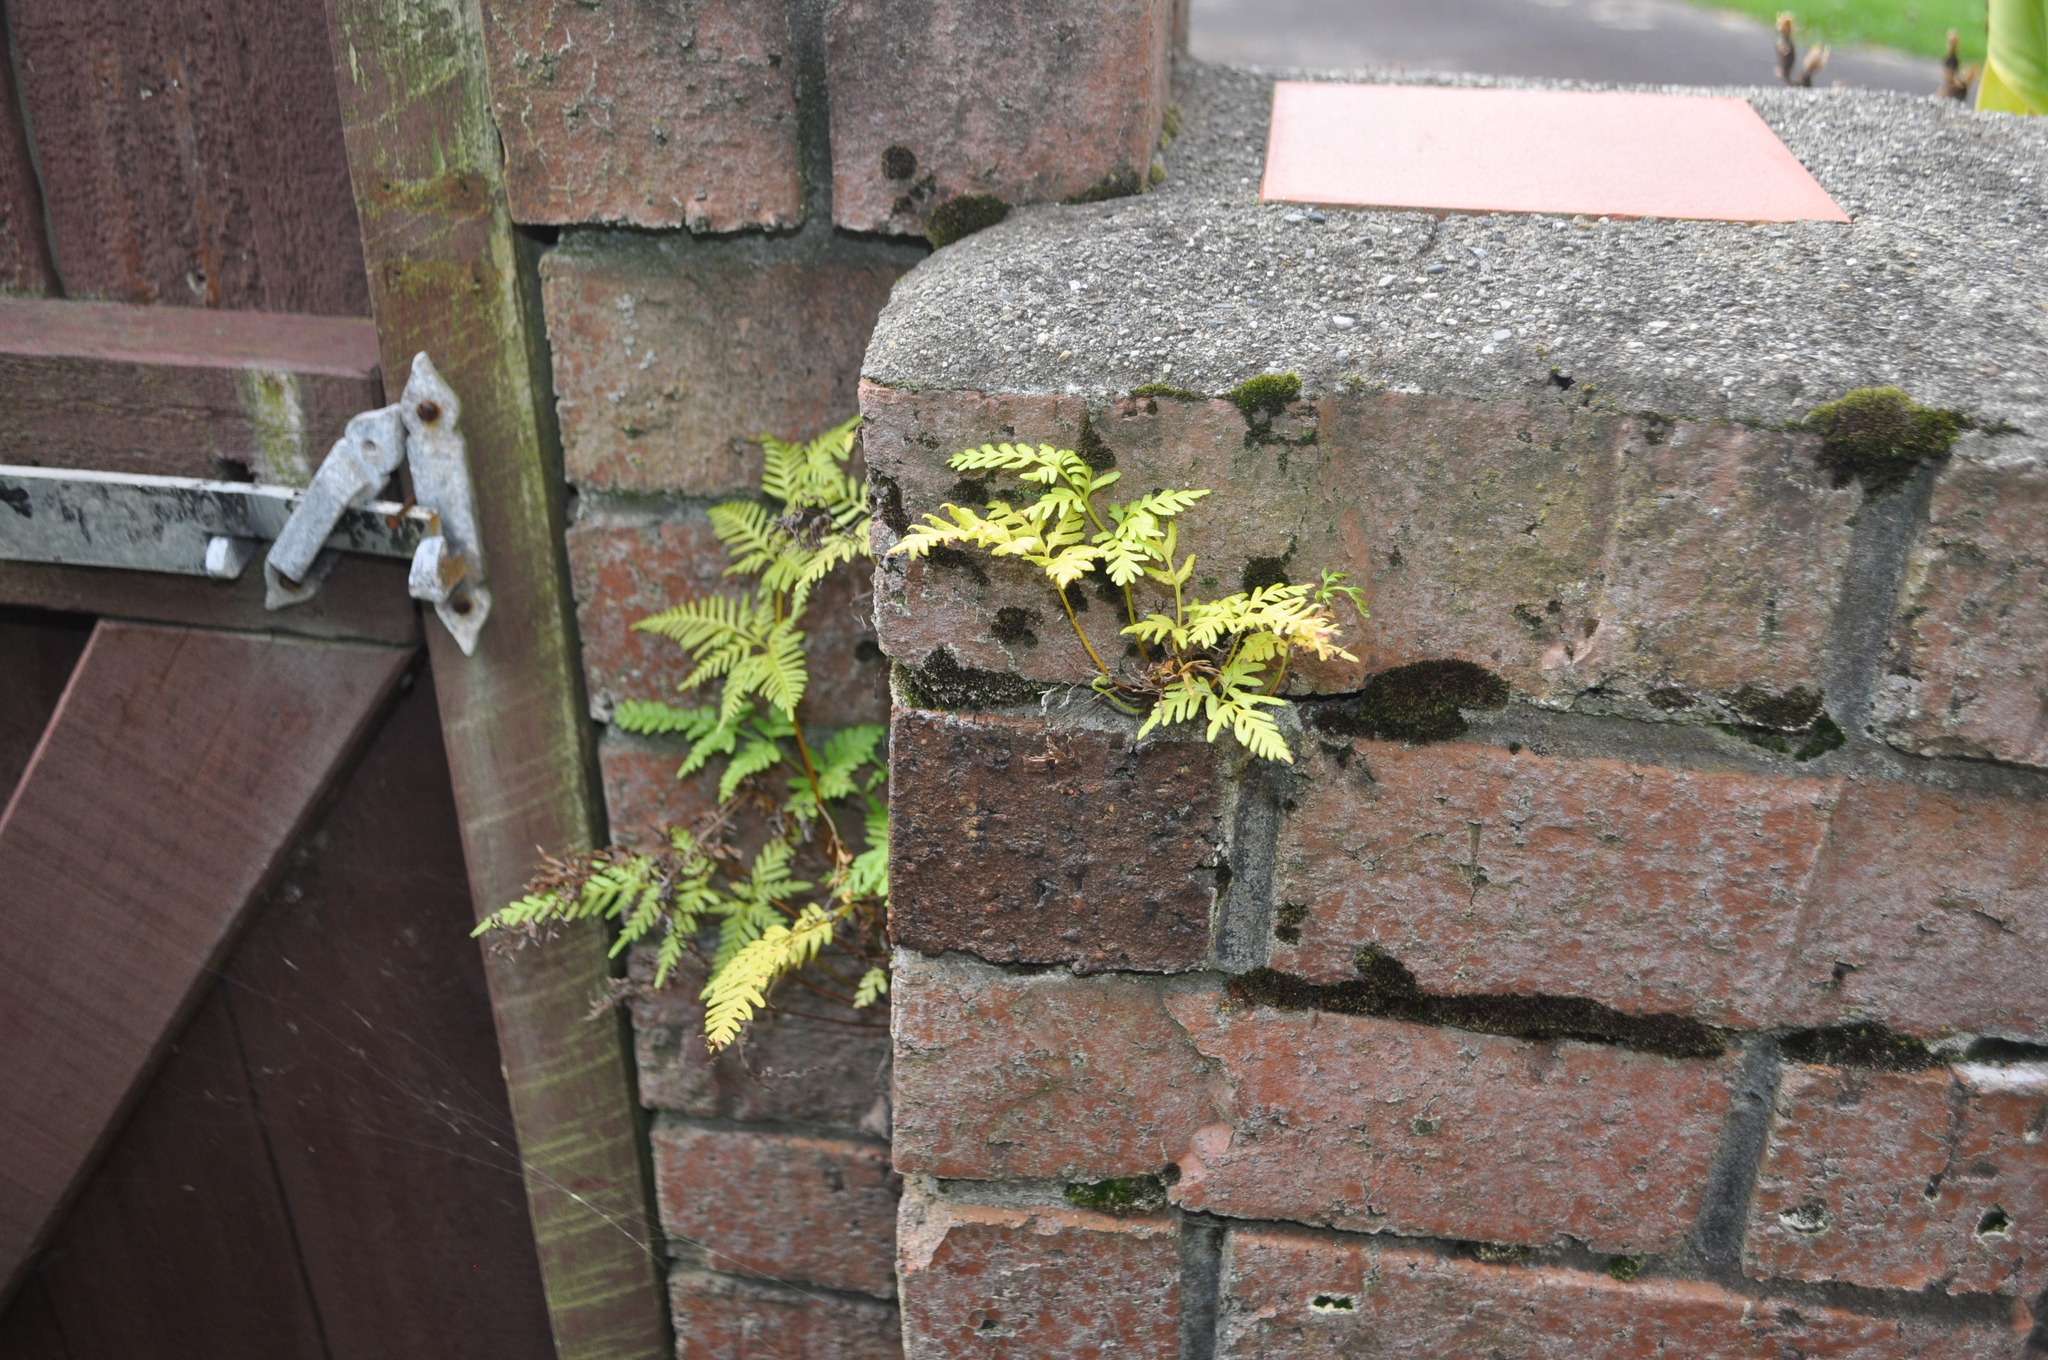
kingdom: Plantae
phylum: Tracheophyta
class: Polypodiopsida
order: Polypodiales
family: Pteridaceae
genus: Pteris
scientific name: Pteris tremula
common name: Australian brake
